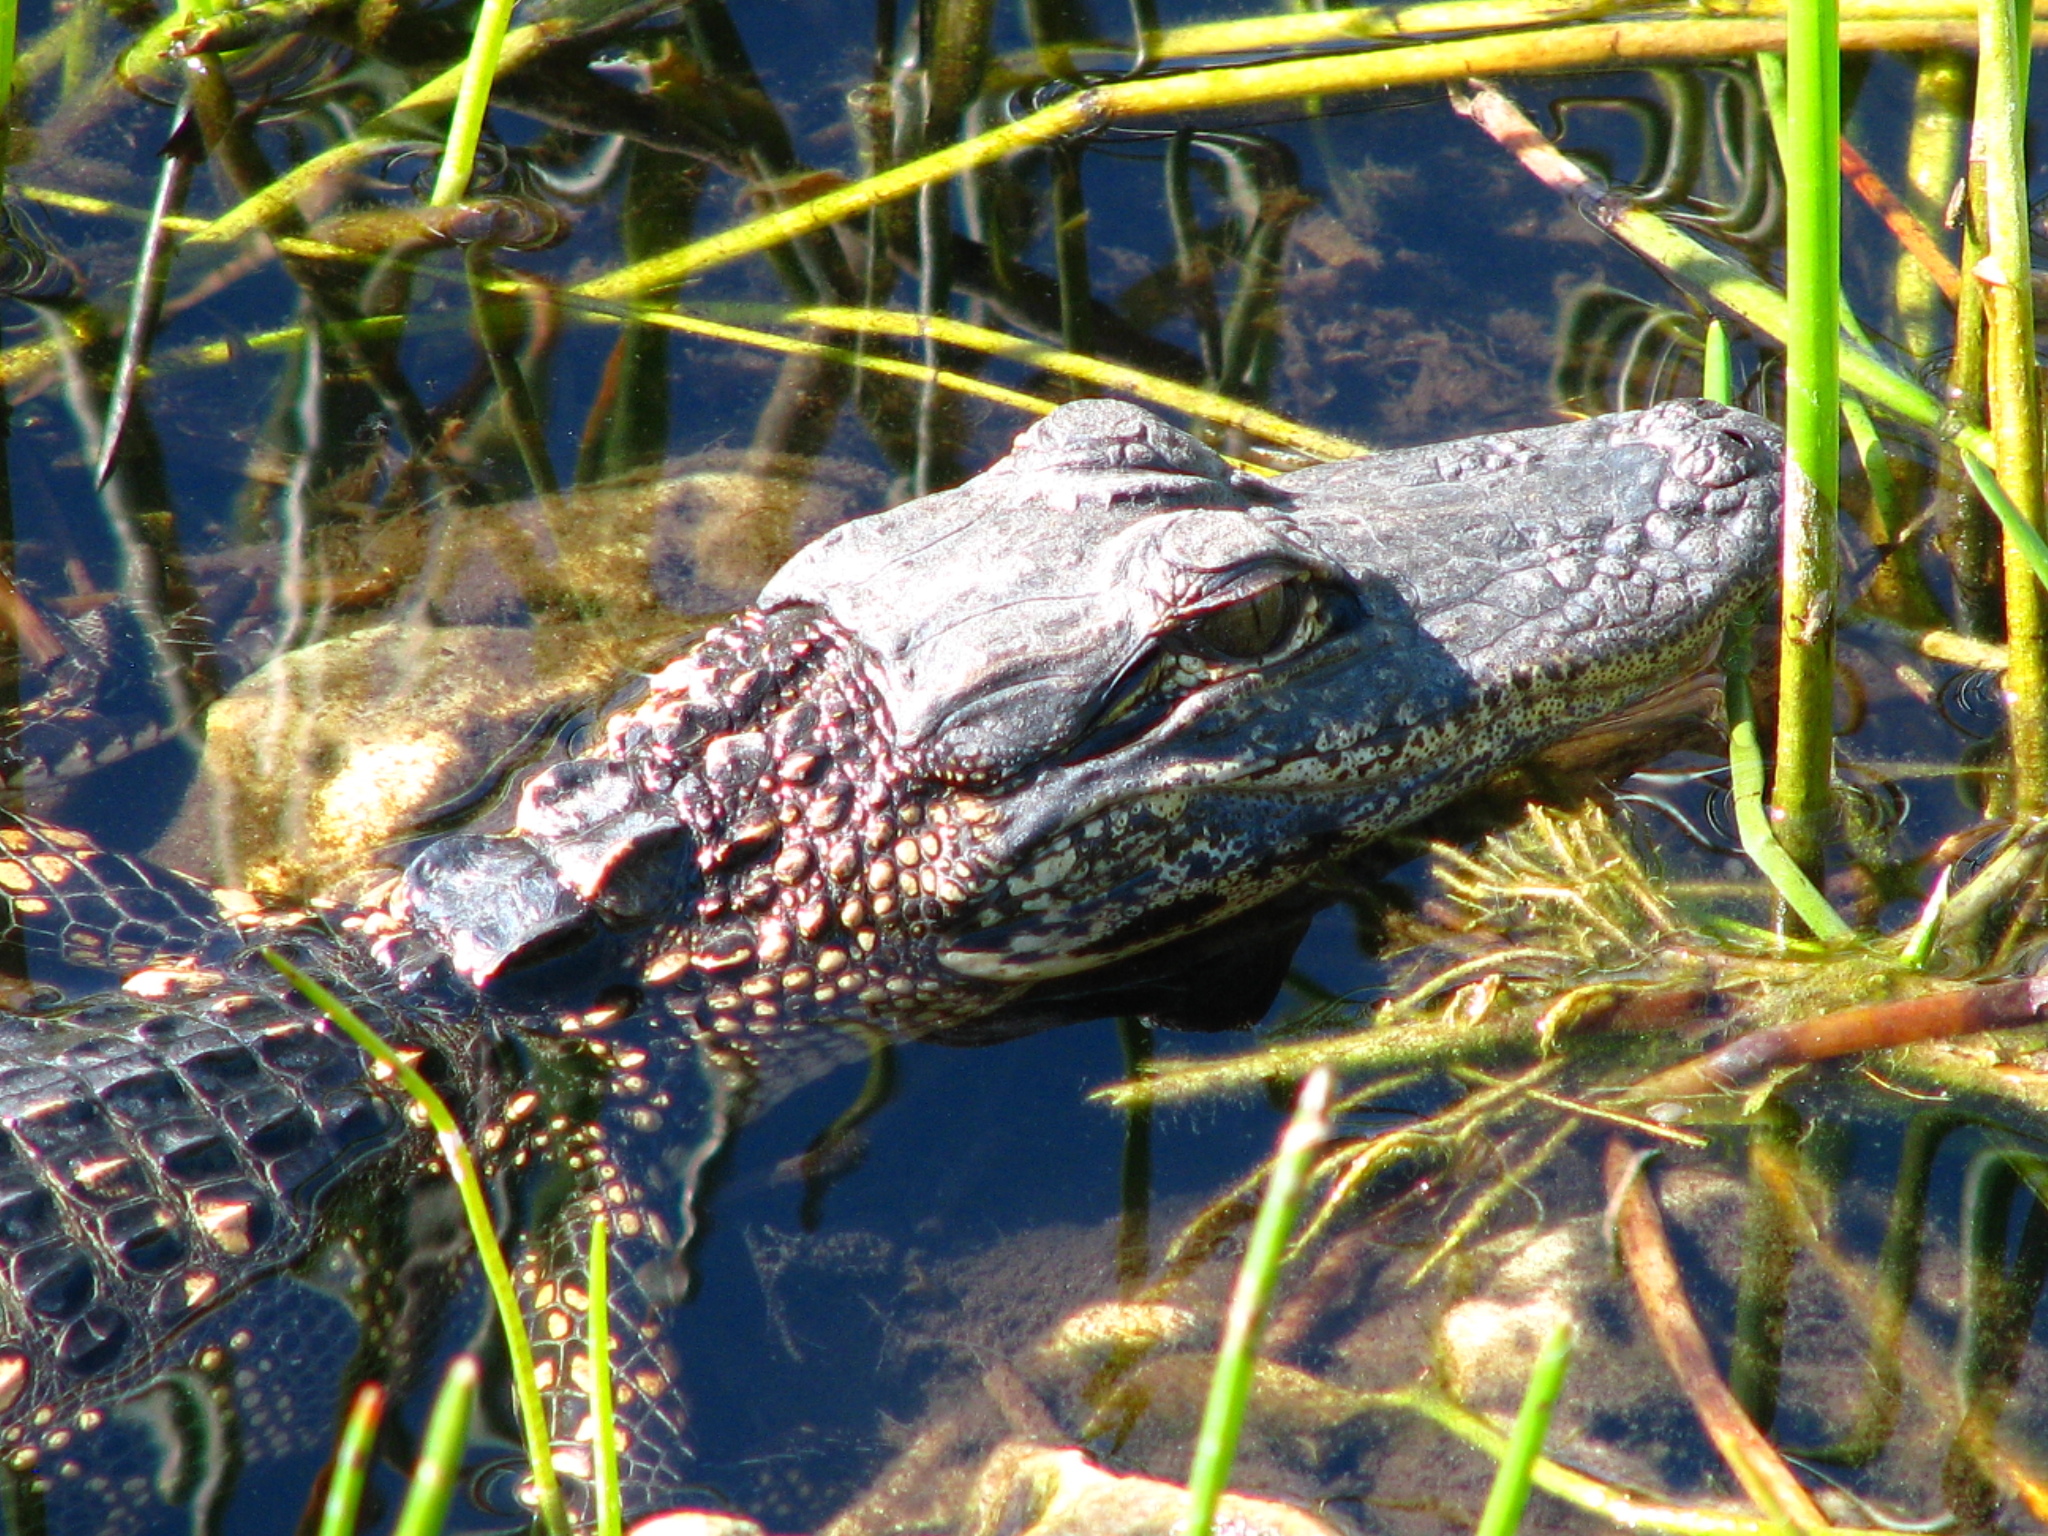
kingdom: Animalia
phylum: Chordata
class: Crocodylia
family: Alligatoridae
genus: Alligator
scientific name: Alligator mississippiensis
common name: American alligator
